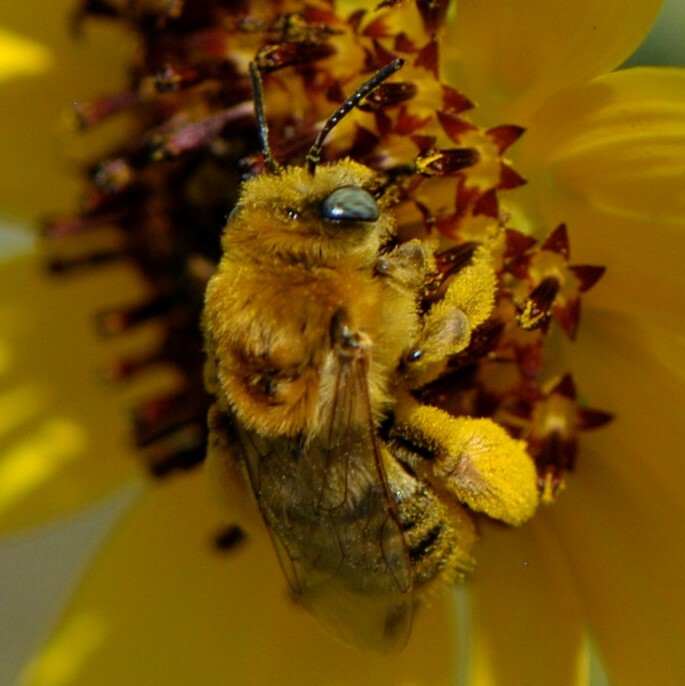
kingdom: Animalia
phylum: Arthropoda
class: Insecta
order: Hymenoptera
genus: Eumelissodes
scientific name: Eumelissodes
